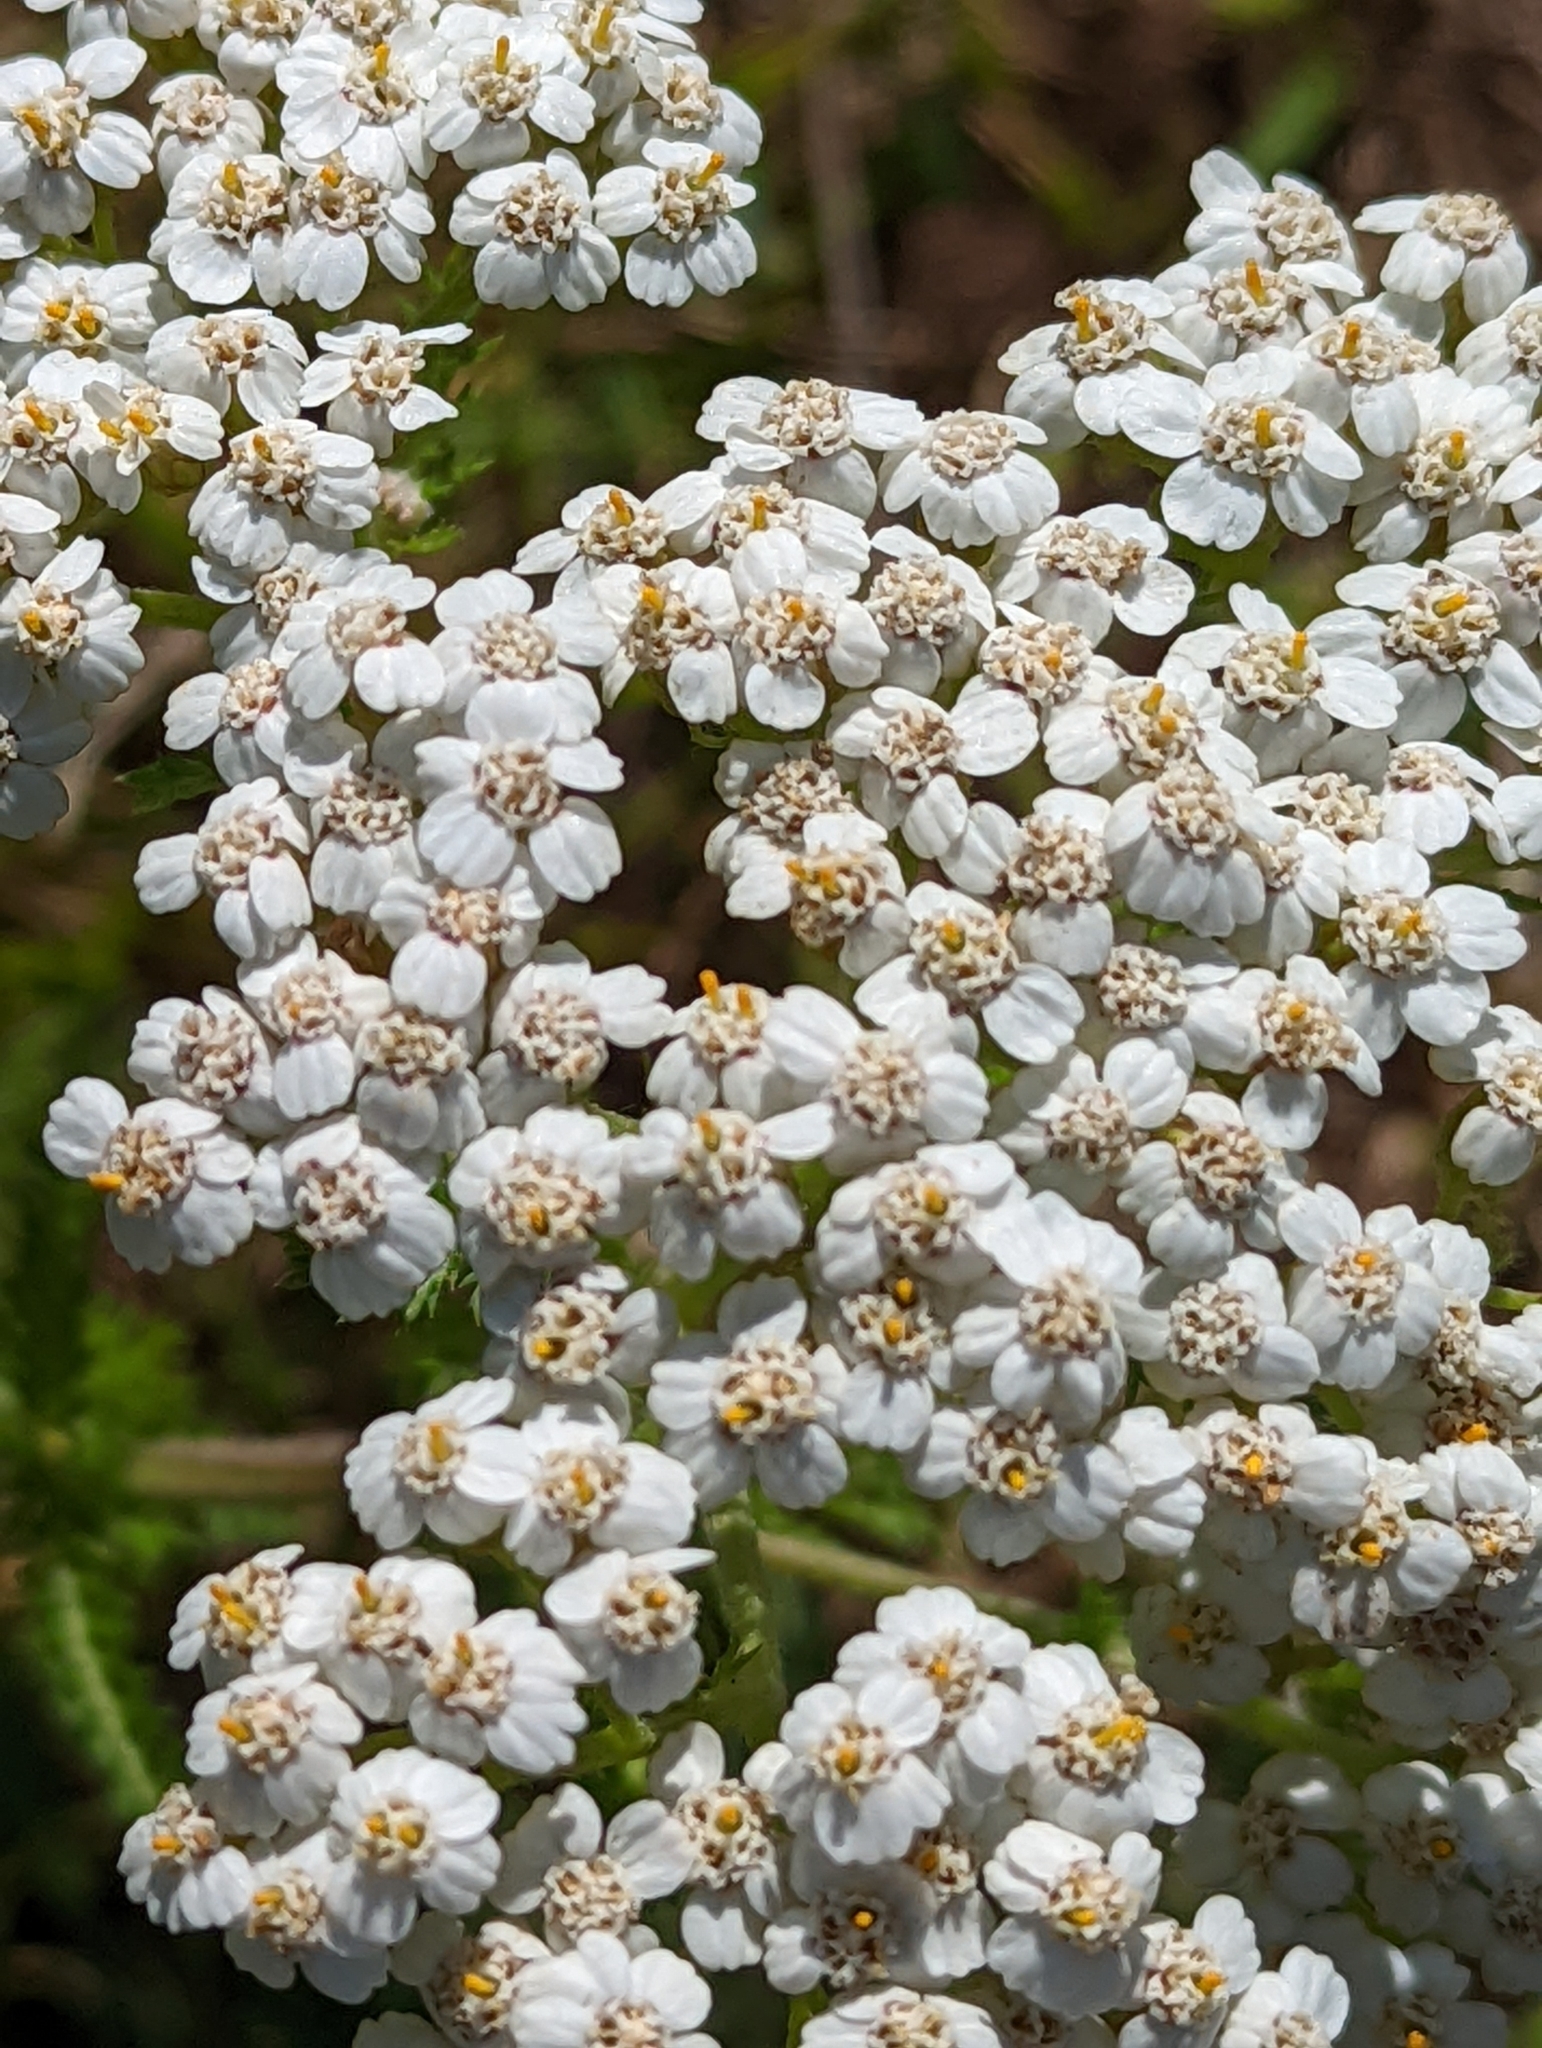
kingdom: Plantae
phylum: Tracheophyta
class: Magnoliopsida
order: Asterales
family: Asteraceae
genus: Achillea
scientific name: Achillea millefolium
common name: Yarrow
